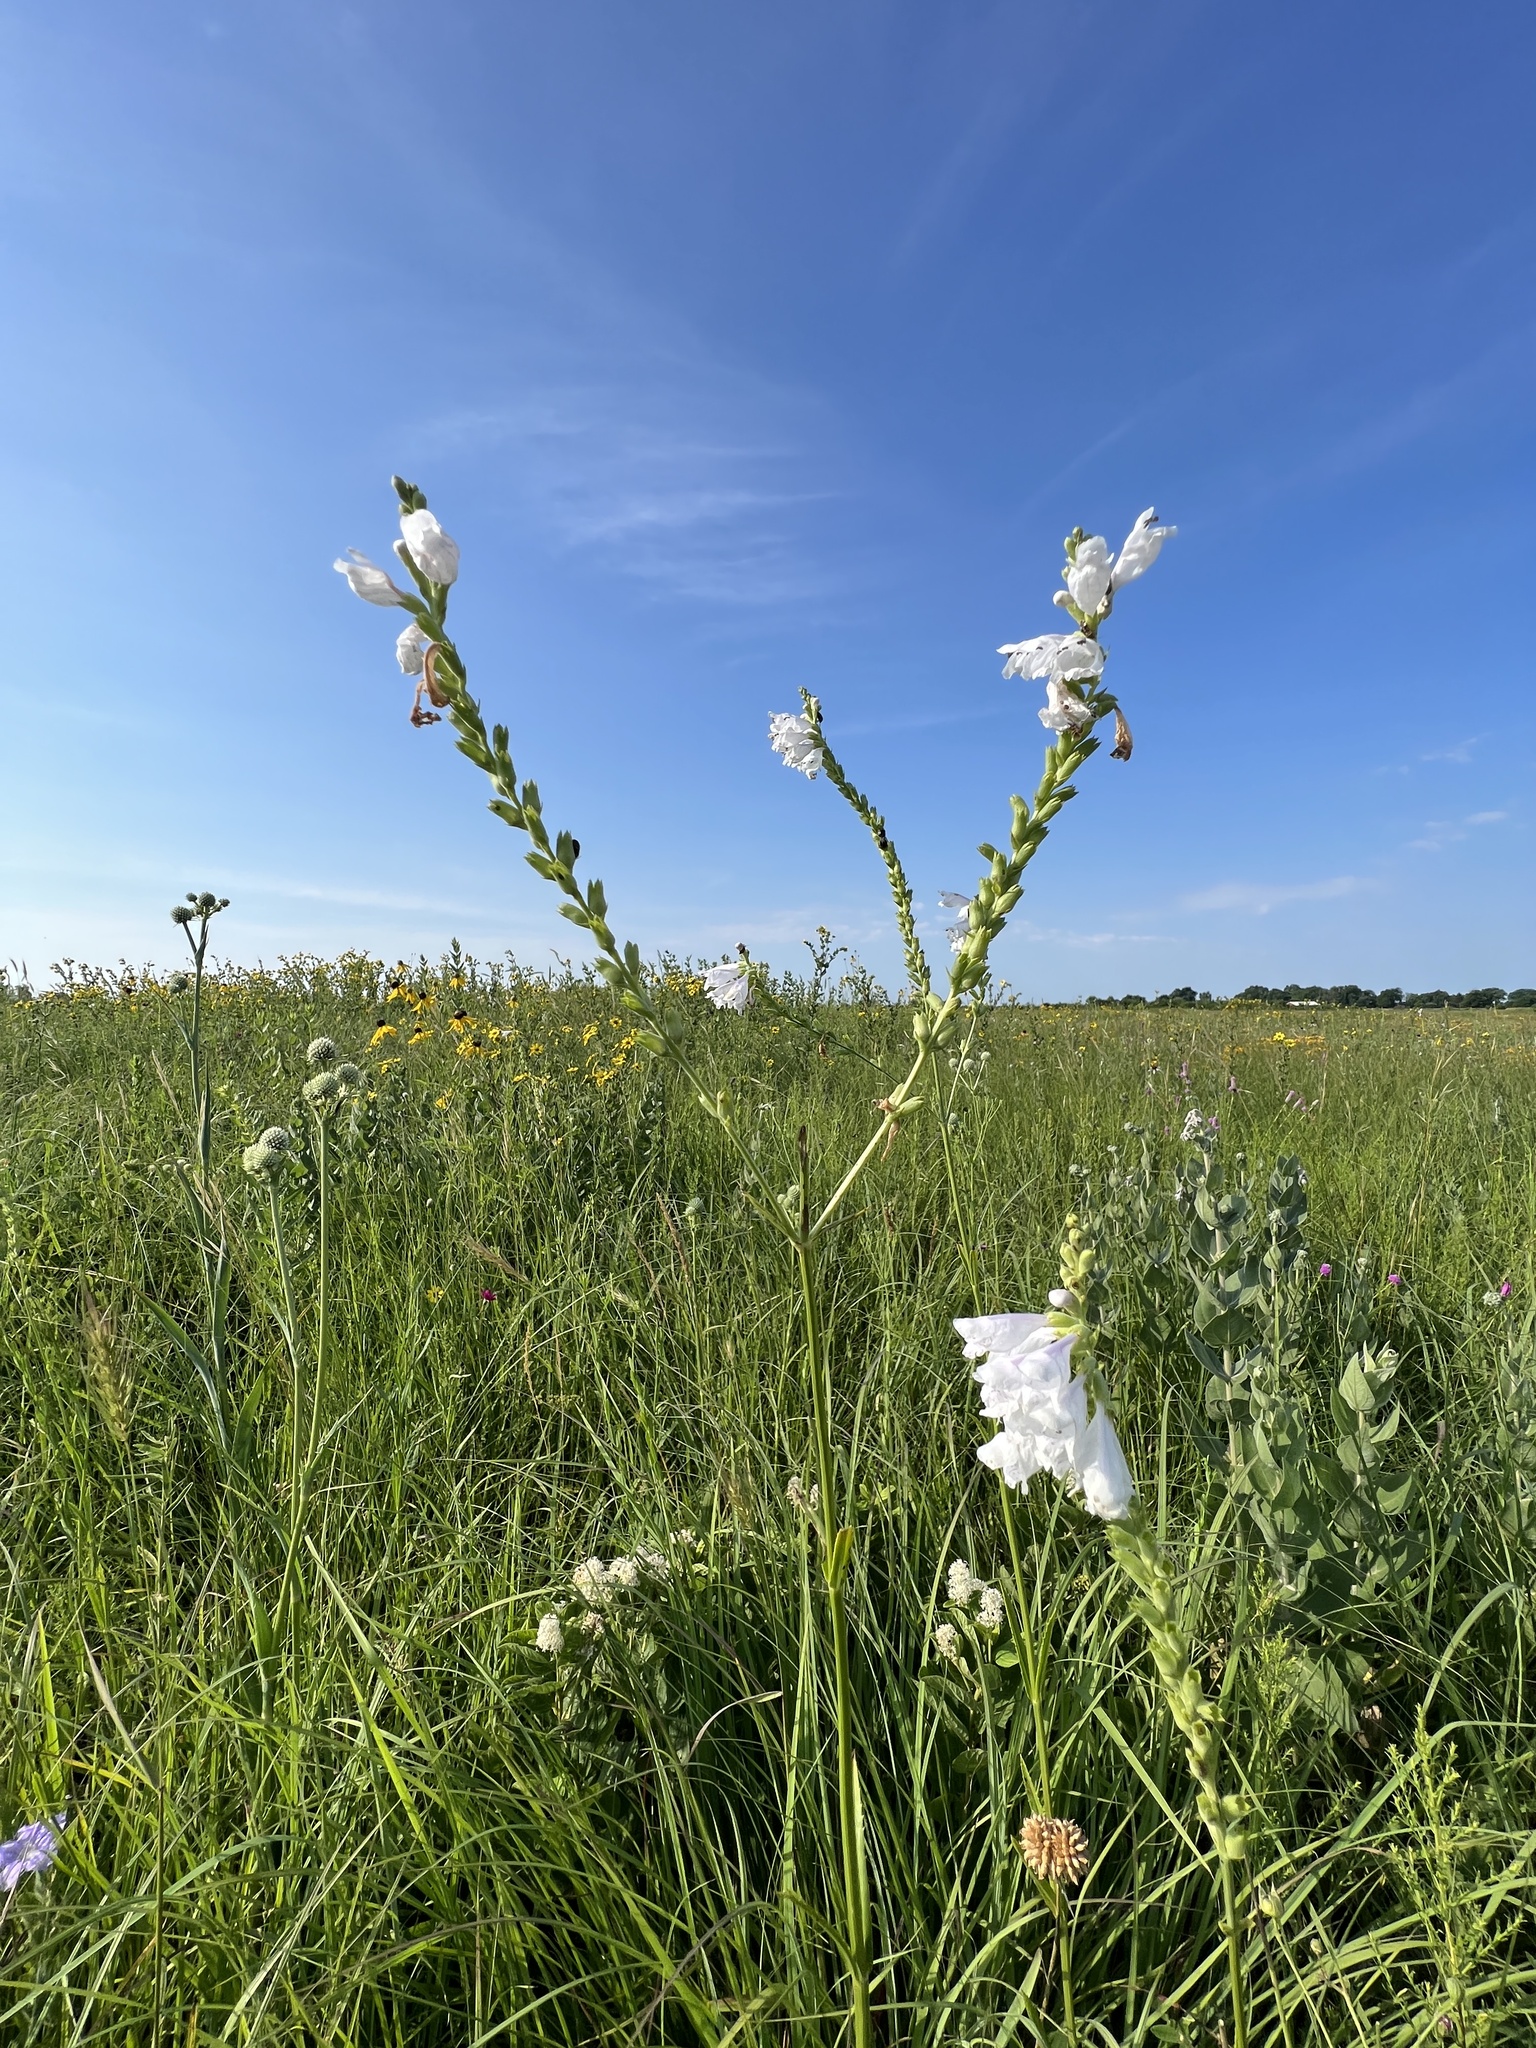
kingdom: Plantae
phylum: Tracheophyta
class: Magnoliopsida
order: Lamiales
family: Lamiaceae
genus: Physostegia
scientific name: Physostegia angustifolia
